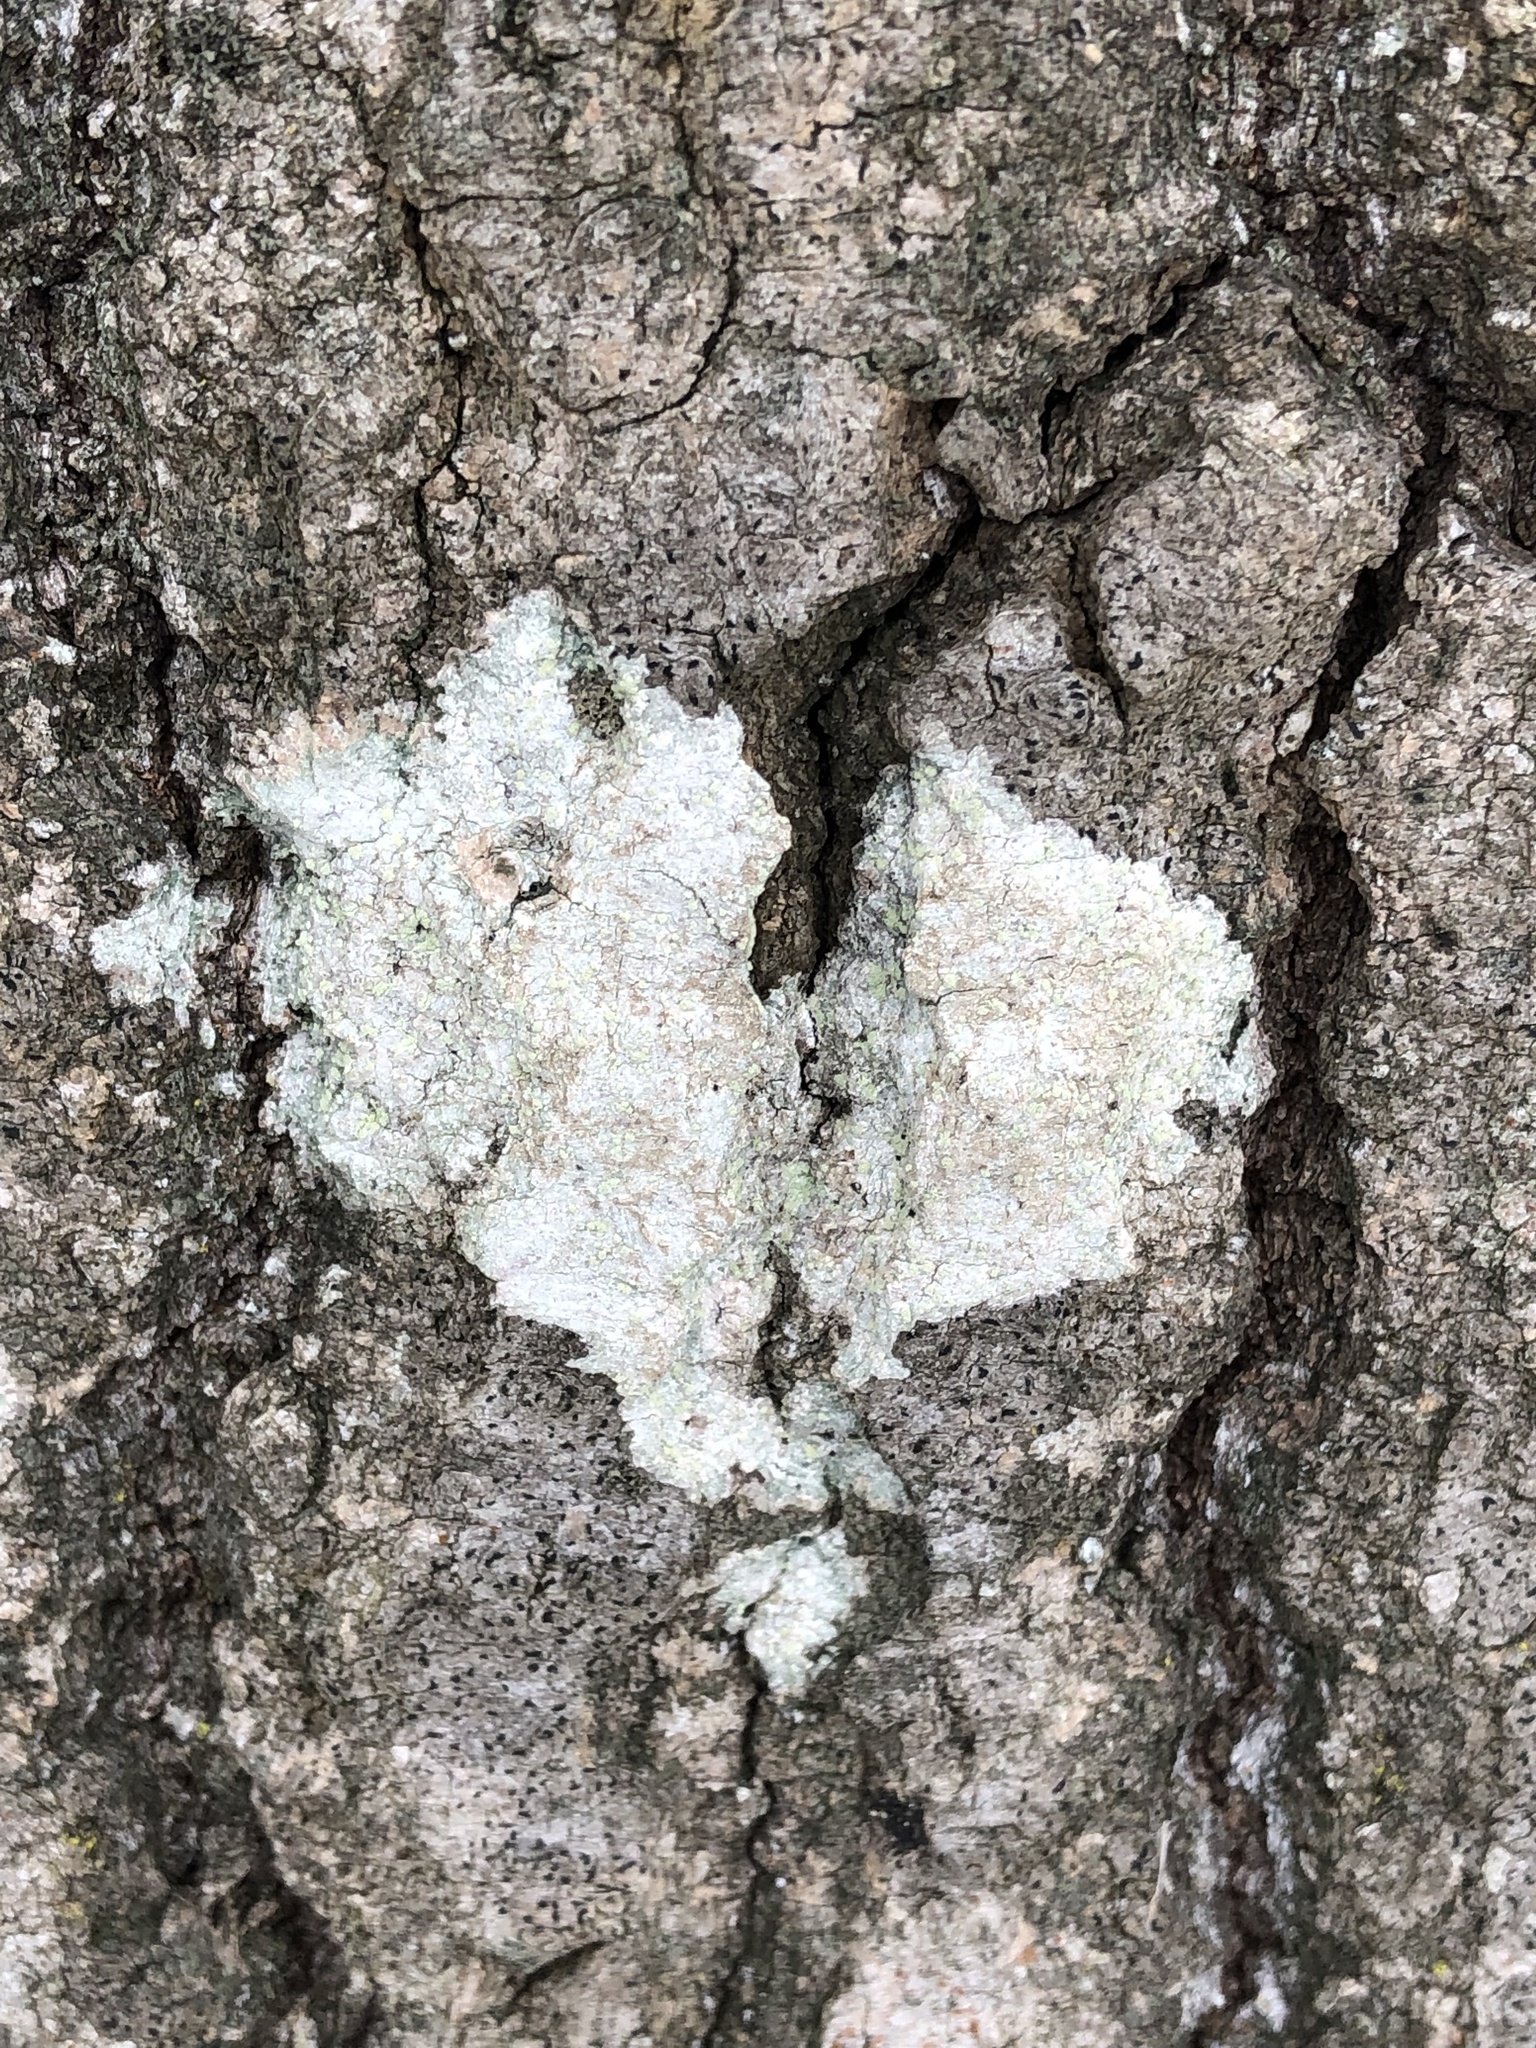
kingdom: Fungi
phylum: Ascomycota
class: Lecanoromycetes
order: Pertusariales
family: Ochrolechiaceae
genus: Ochrolechia
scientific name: Ochrolechia arborea
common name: Tree saucer lichen
